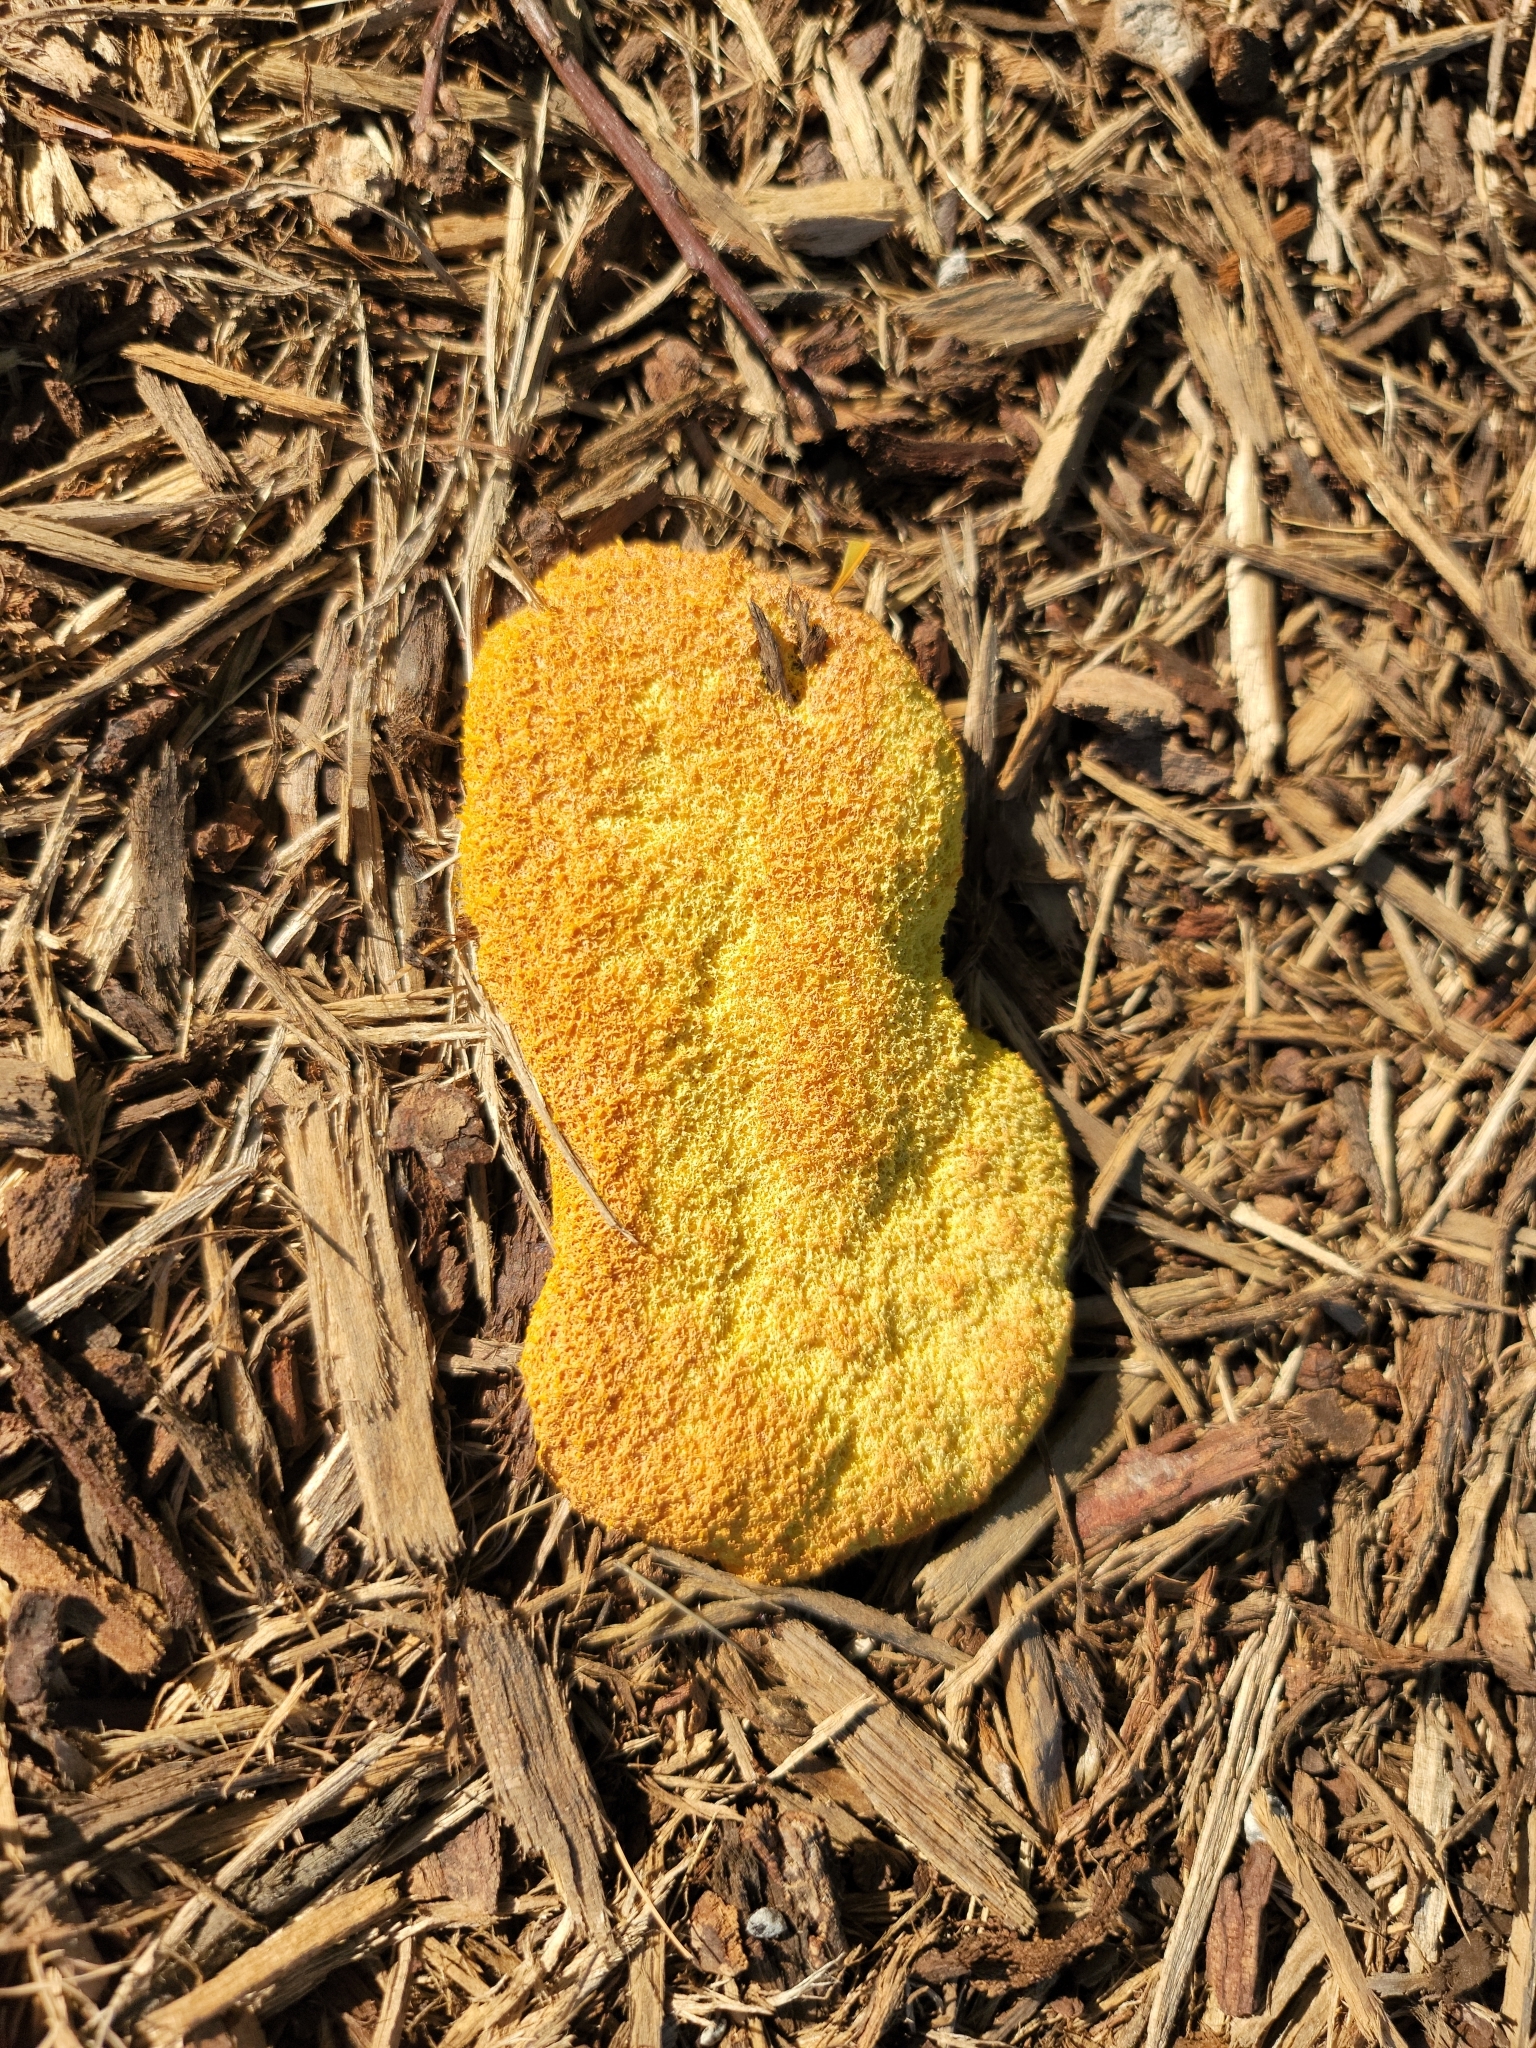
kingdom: Protozoa
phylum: Mycetozoa
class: Myxomycetes
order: Physarales
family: Physaraceae
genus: Fuligo
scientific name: Fuligo septica
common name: Dog vomit slime mold
